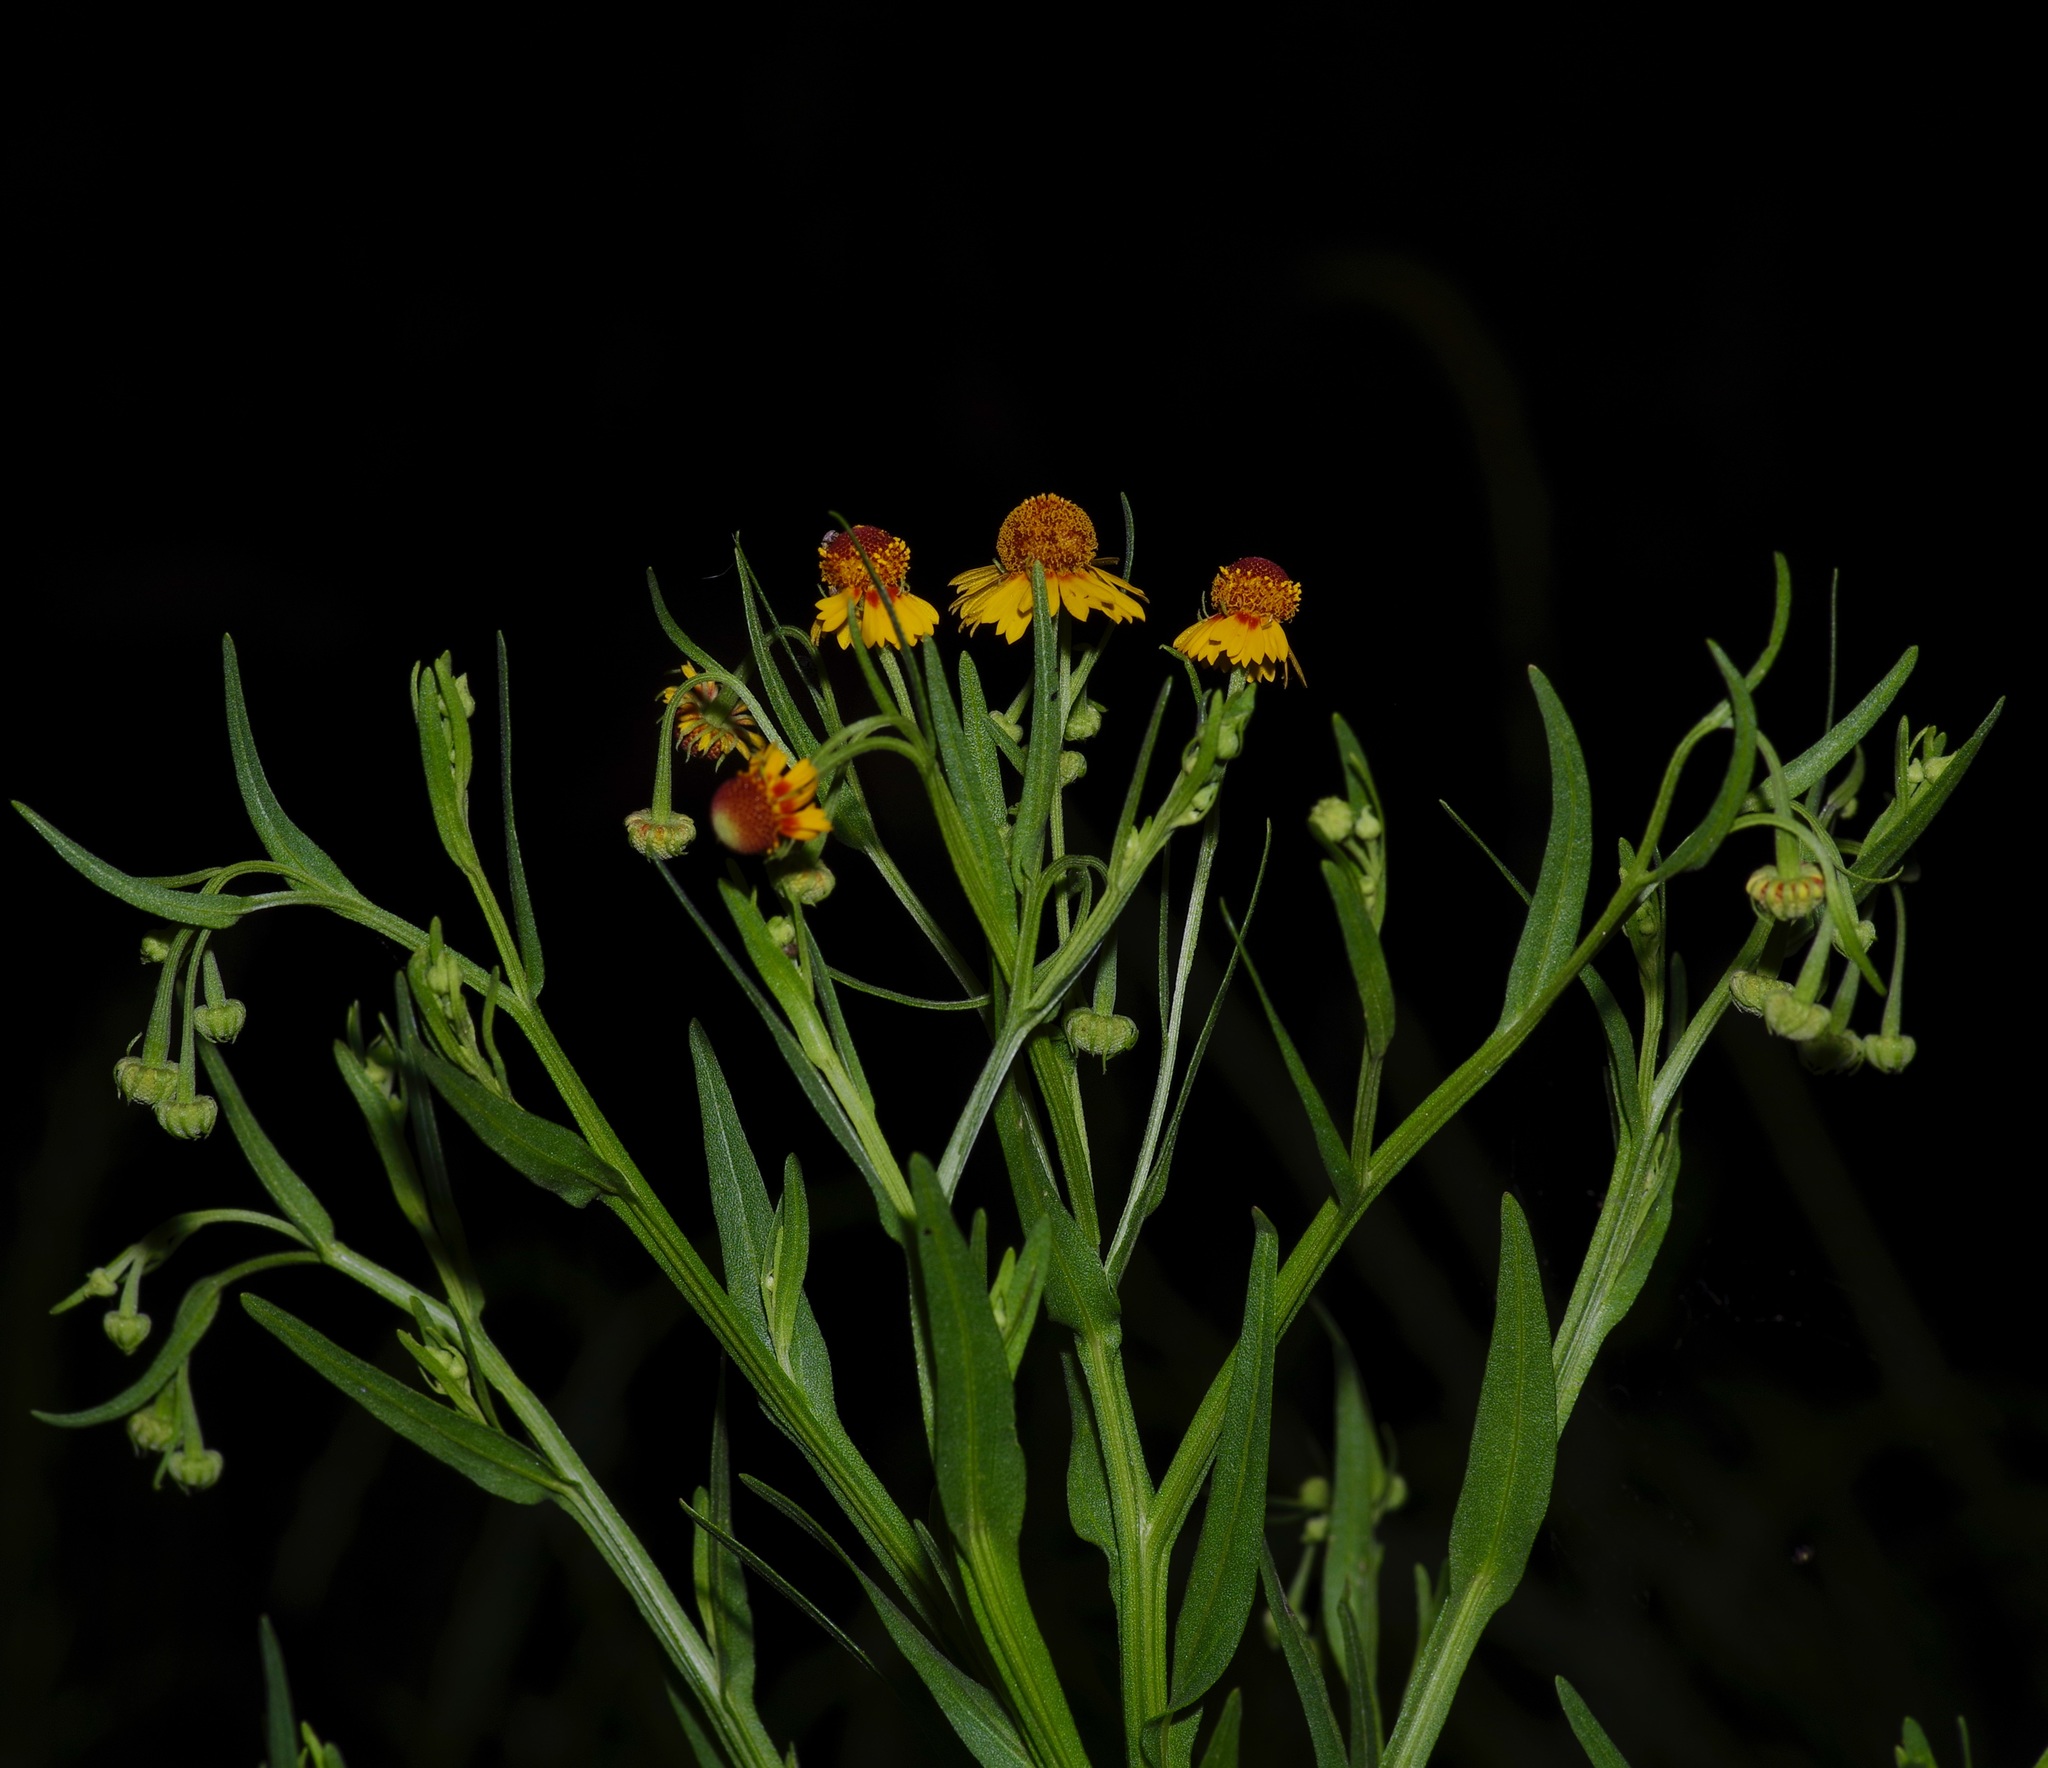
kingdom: Plantae
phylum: Tracheophyta
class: Magnoliopsida
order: Asterales
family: Asteraceae
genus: Helenium
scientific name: Helenium elegans
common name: Pretty sneezeweed
